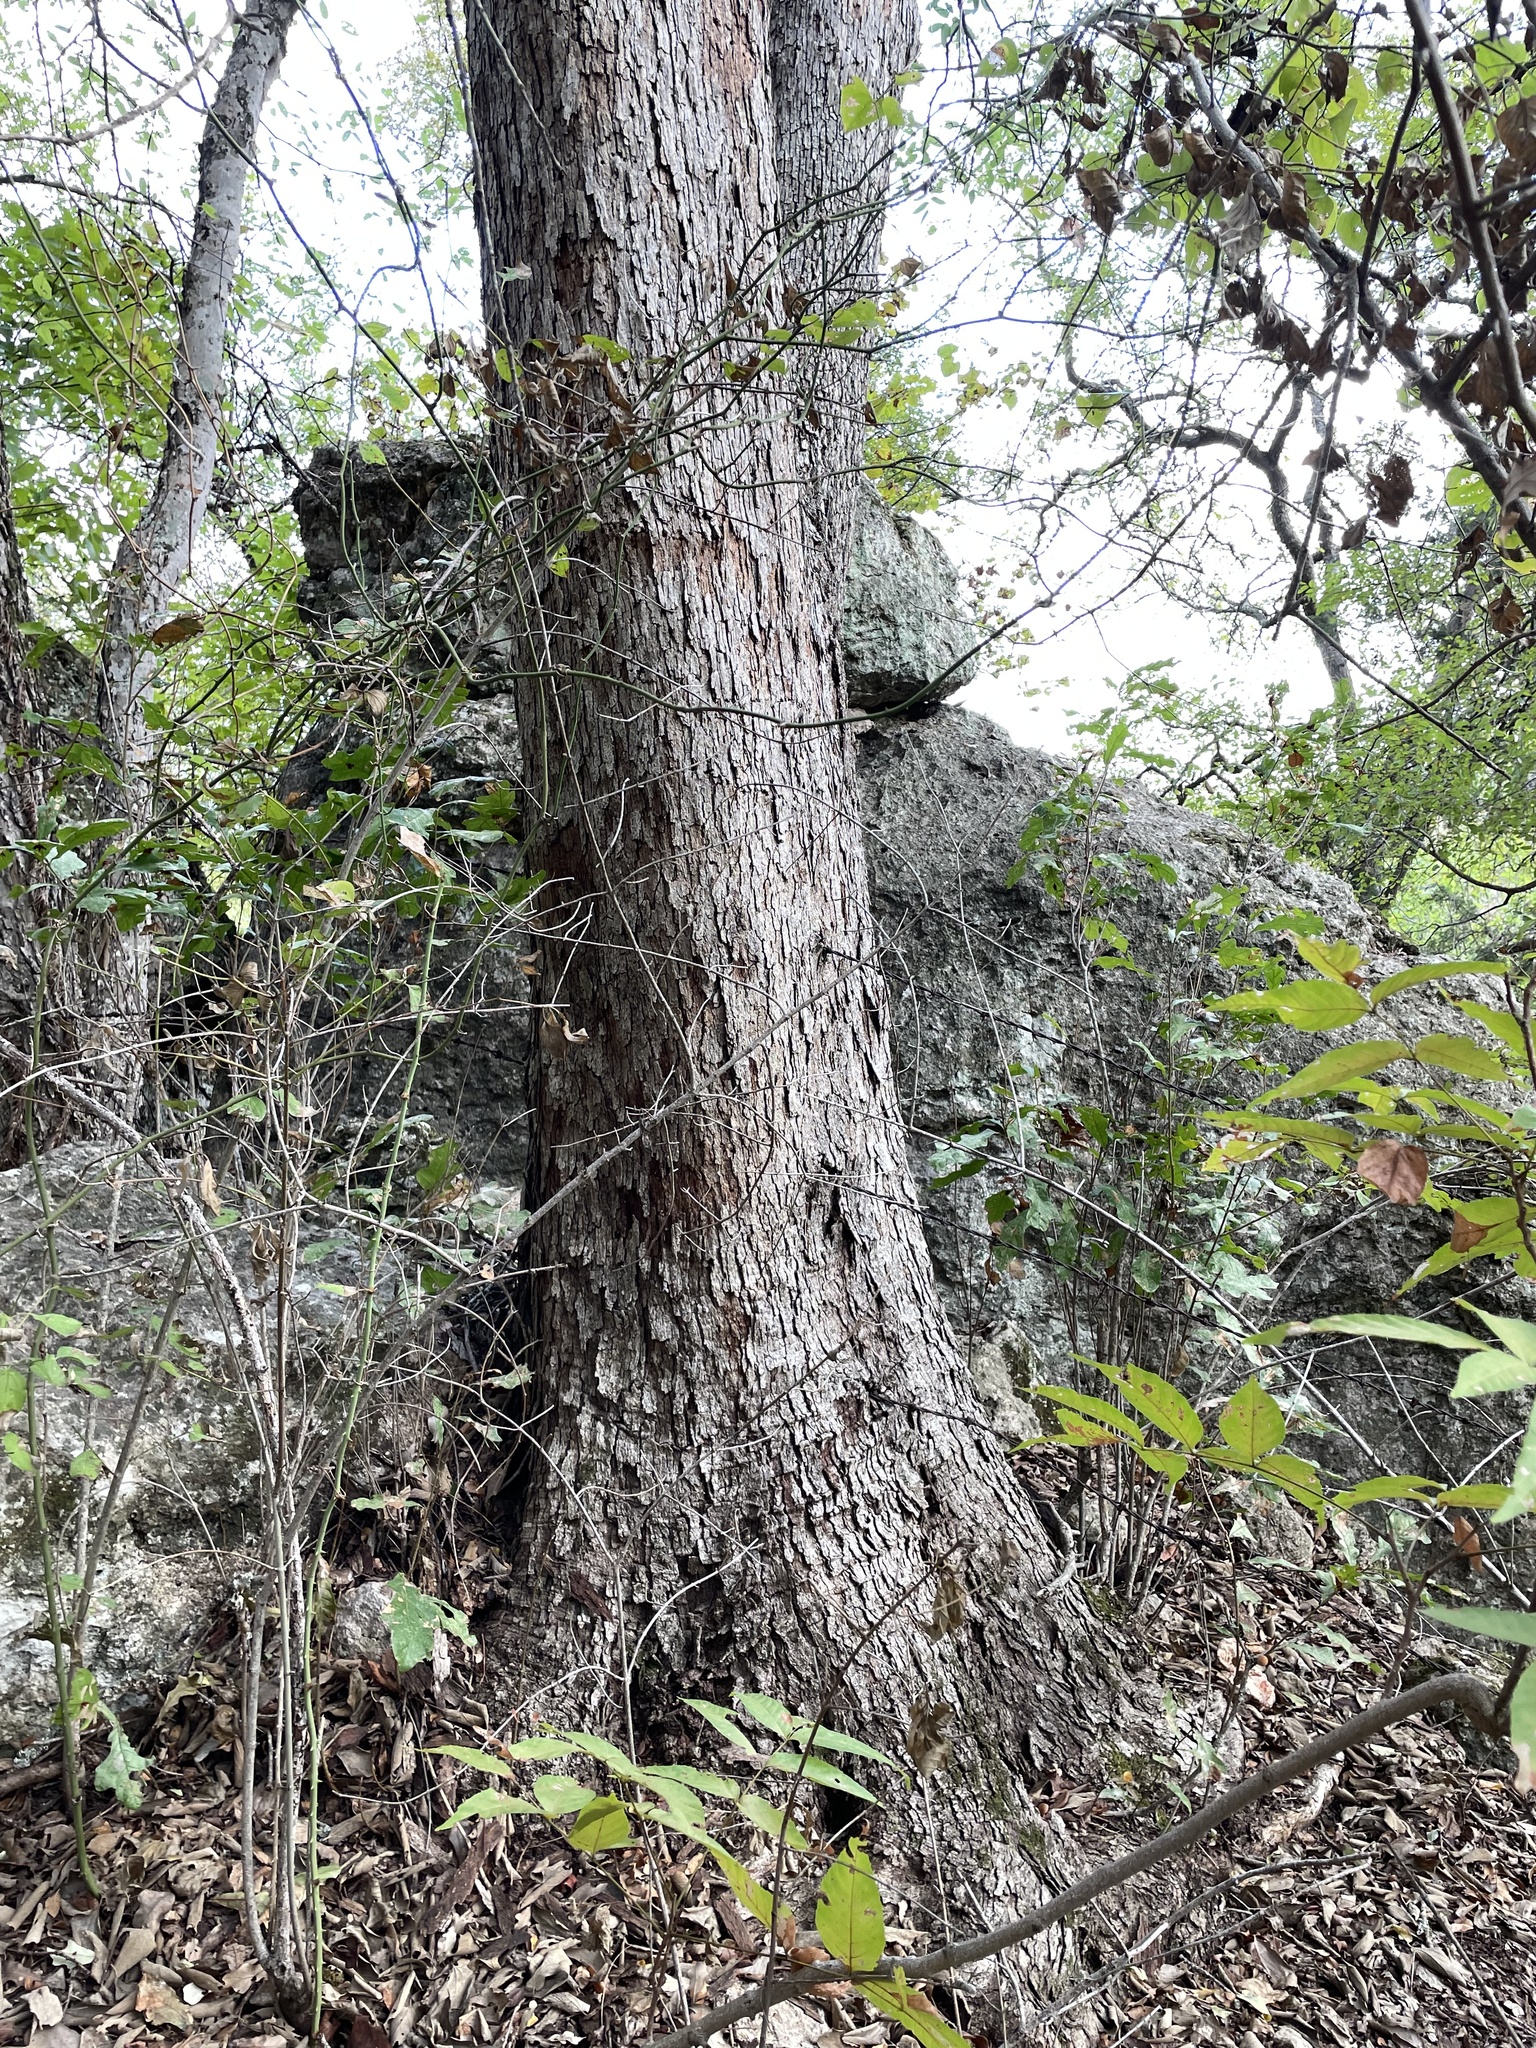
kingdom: Plantae
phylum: Tracheophyta
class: Magnoliopsida
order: Fagales
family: Fagaceae
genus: Quercus
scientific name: Quercus sinuata
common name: Durand oak
